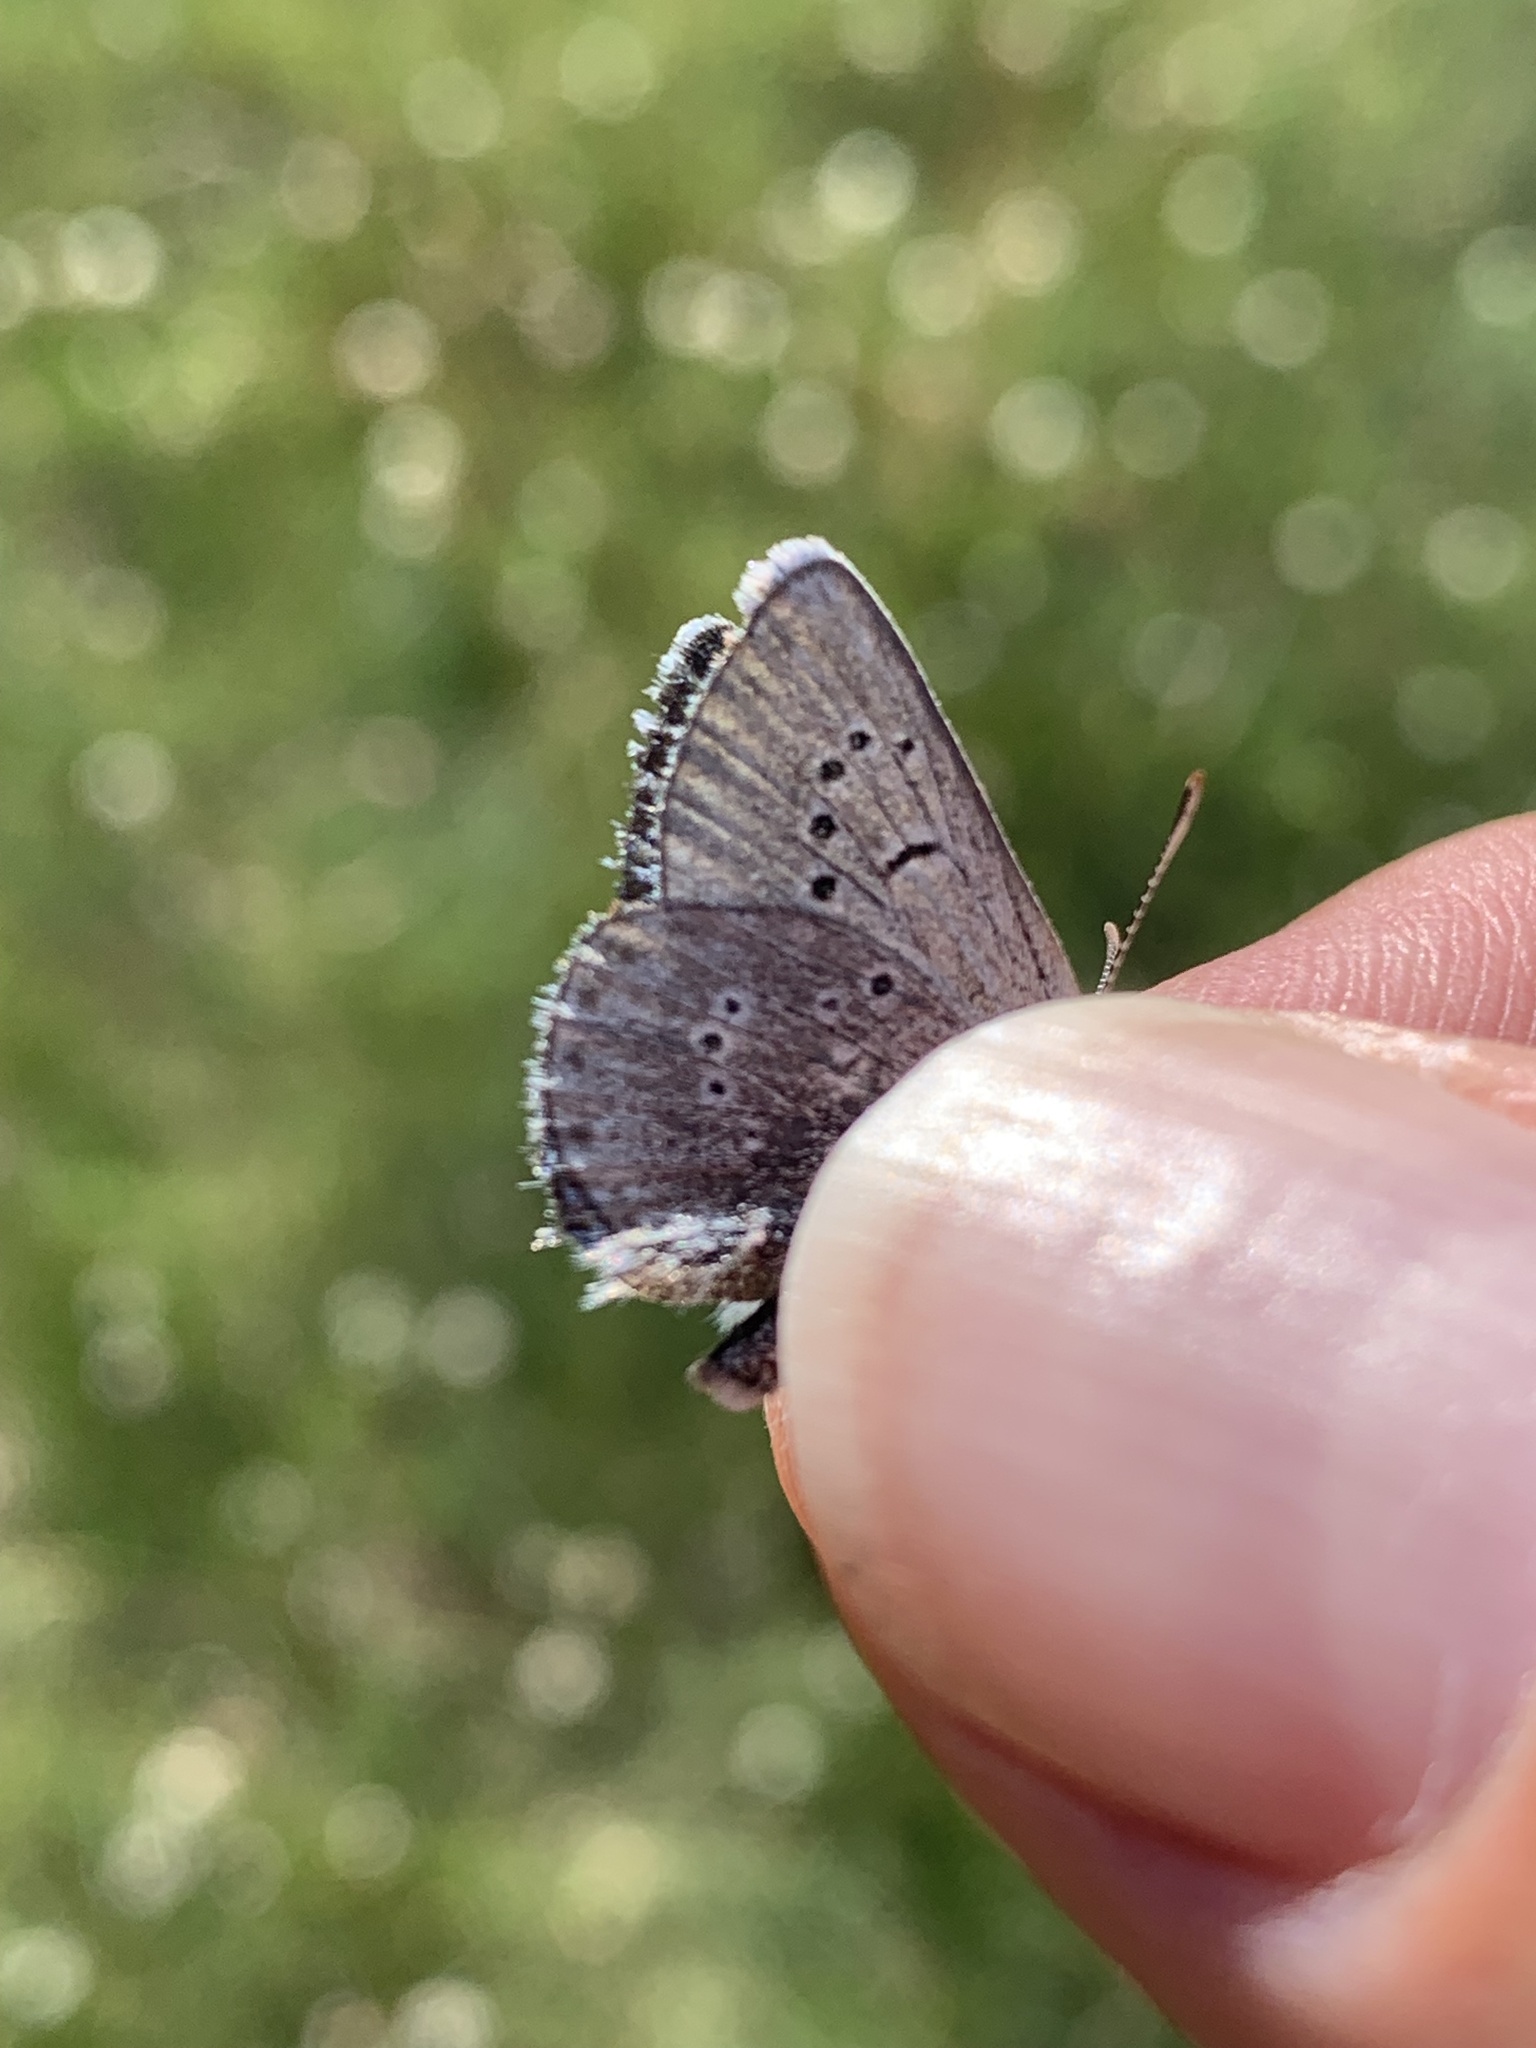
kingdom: Animalia
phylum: Arthropoda
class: Insecta
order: Lepidoptera
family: Lycaenidae
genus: Glaucopsyche
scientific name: Glaucopsyche lygdamus
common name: Silvery blue
